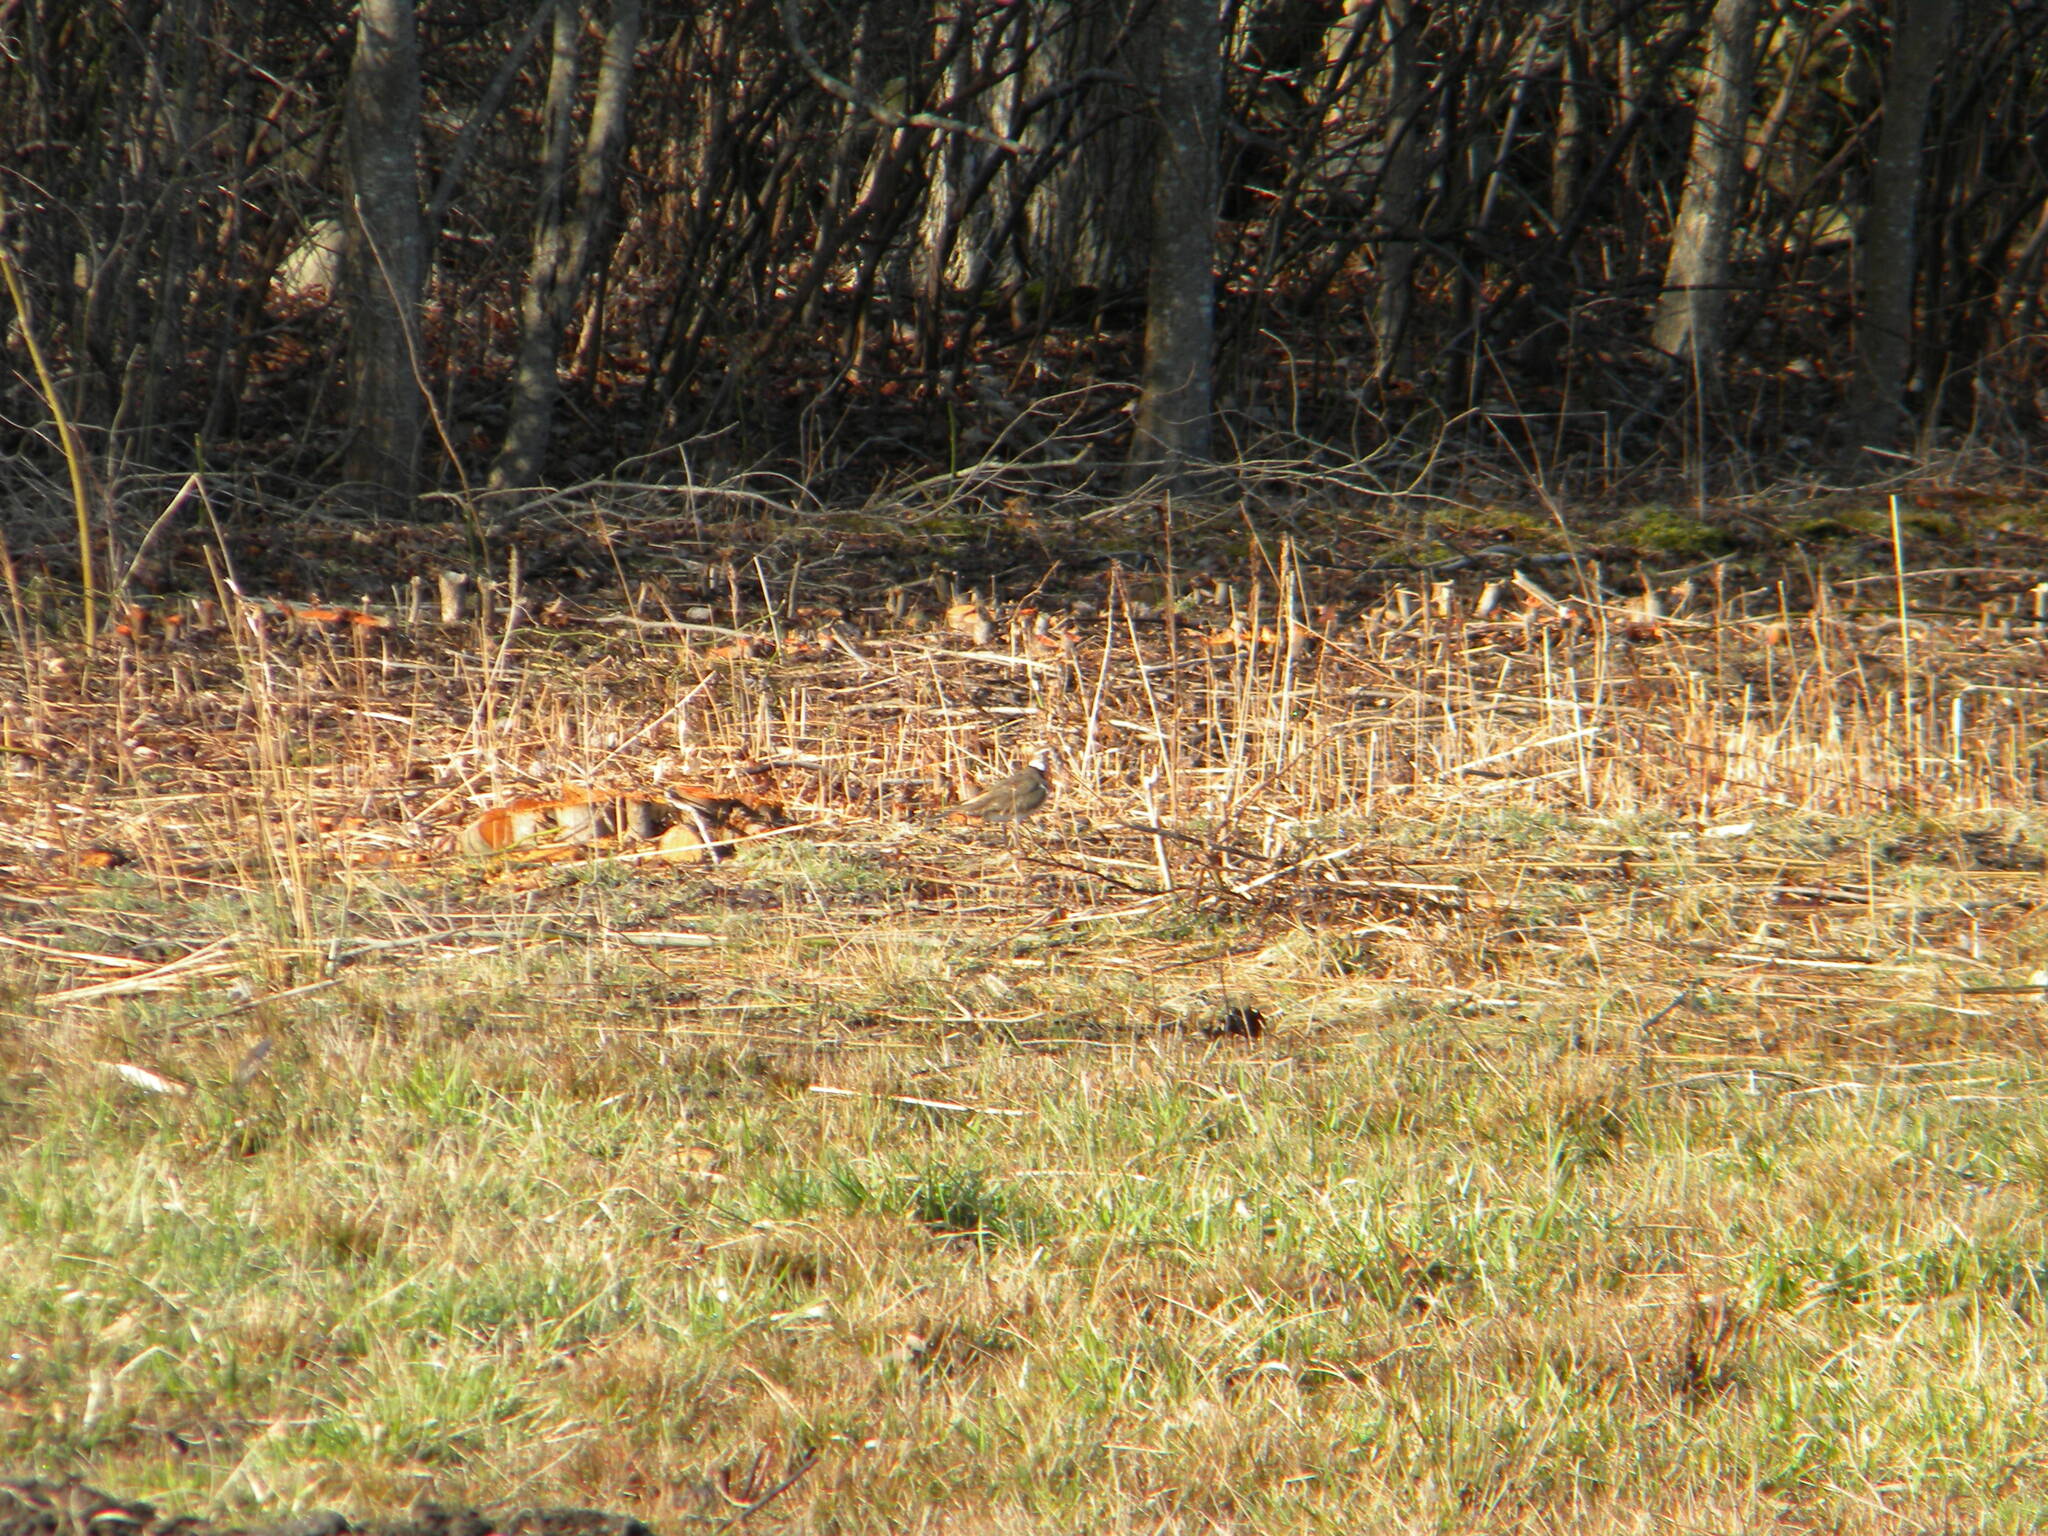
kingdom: Animalia
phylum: Chordata
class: Aves
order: Charadriiformes
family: Charadriidae
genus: Charadrius
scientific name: Charadrius vociferus
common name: Killdeer
